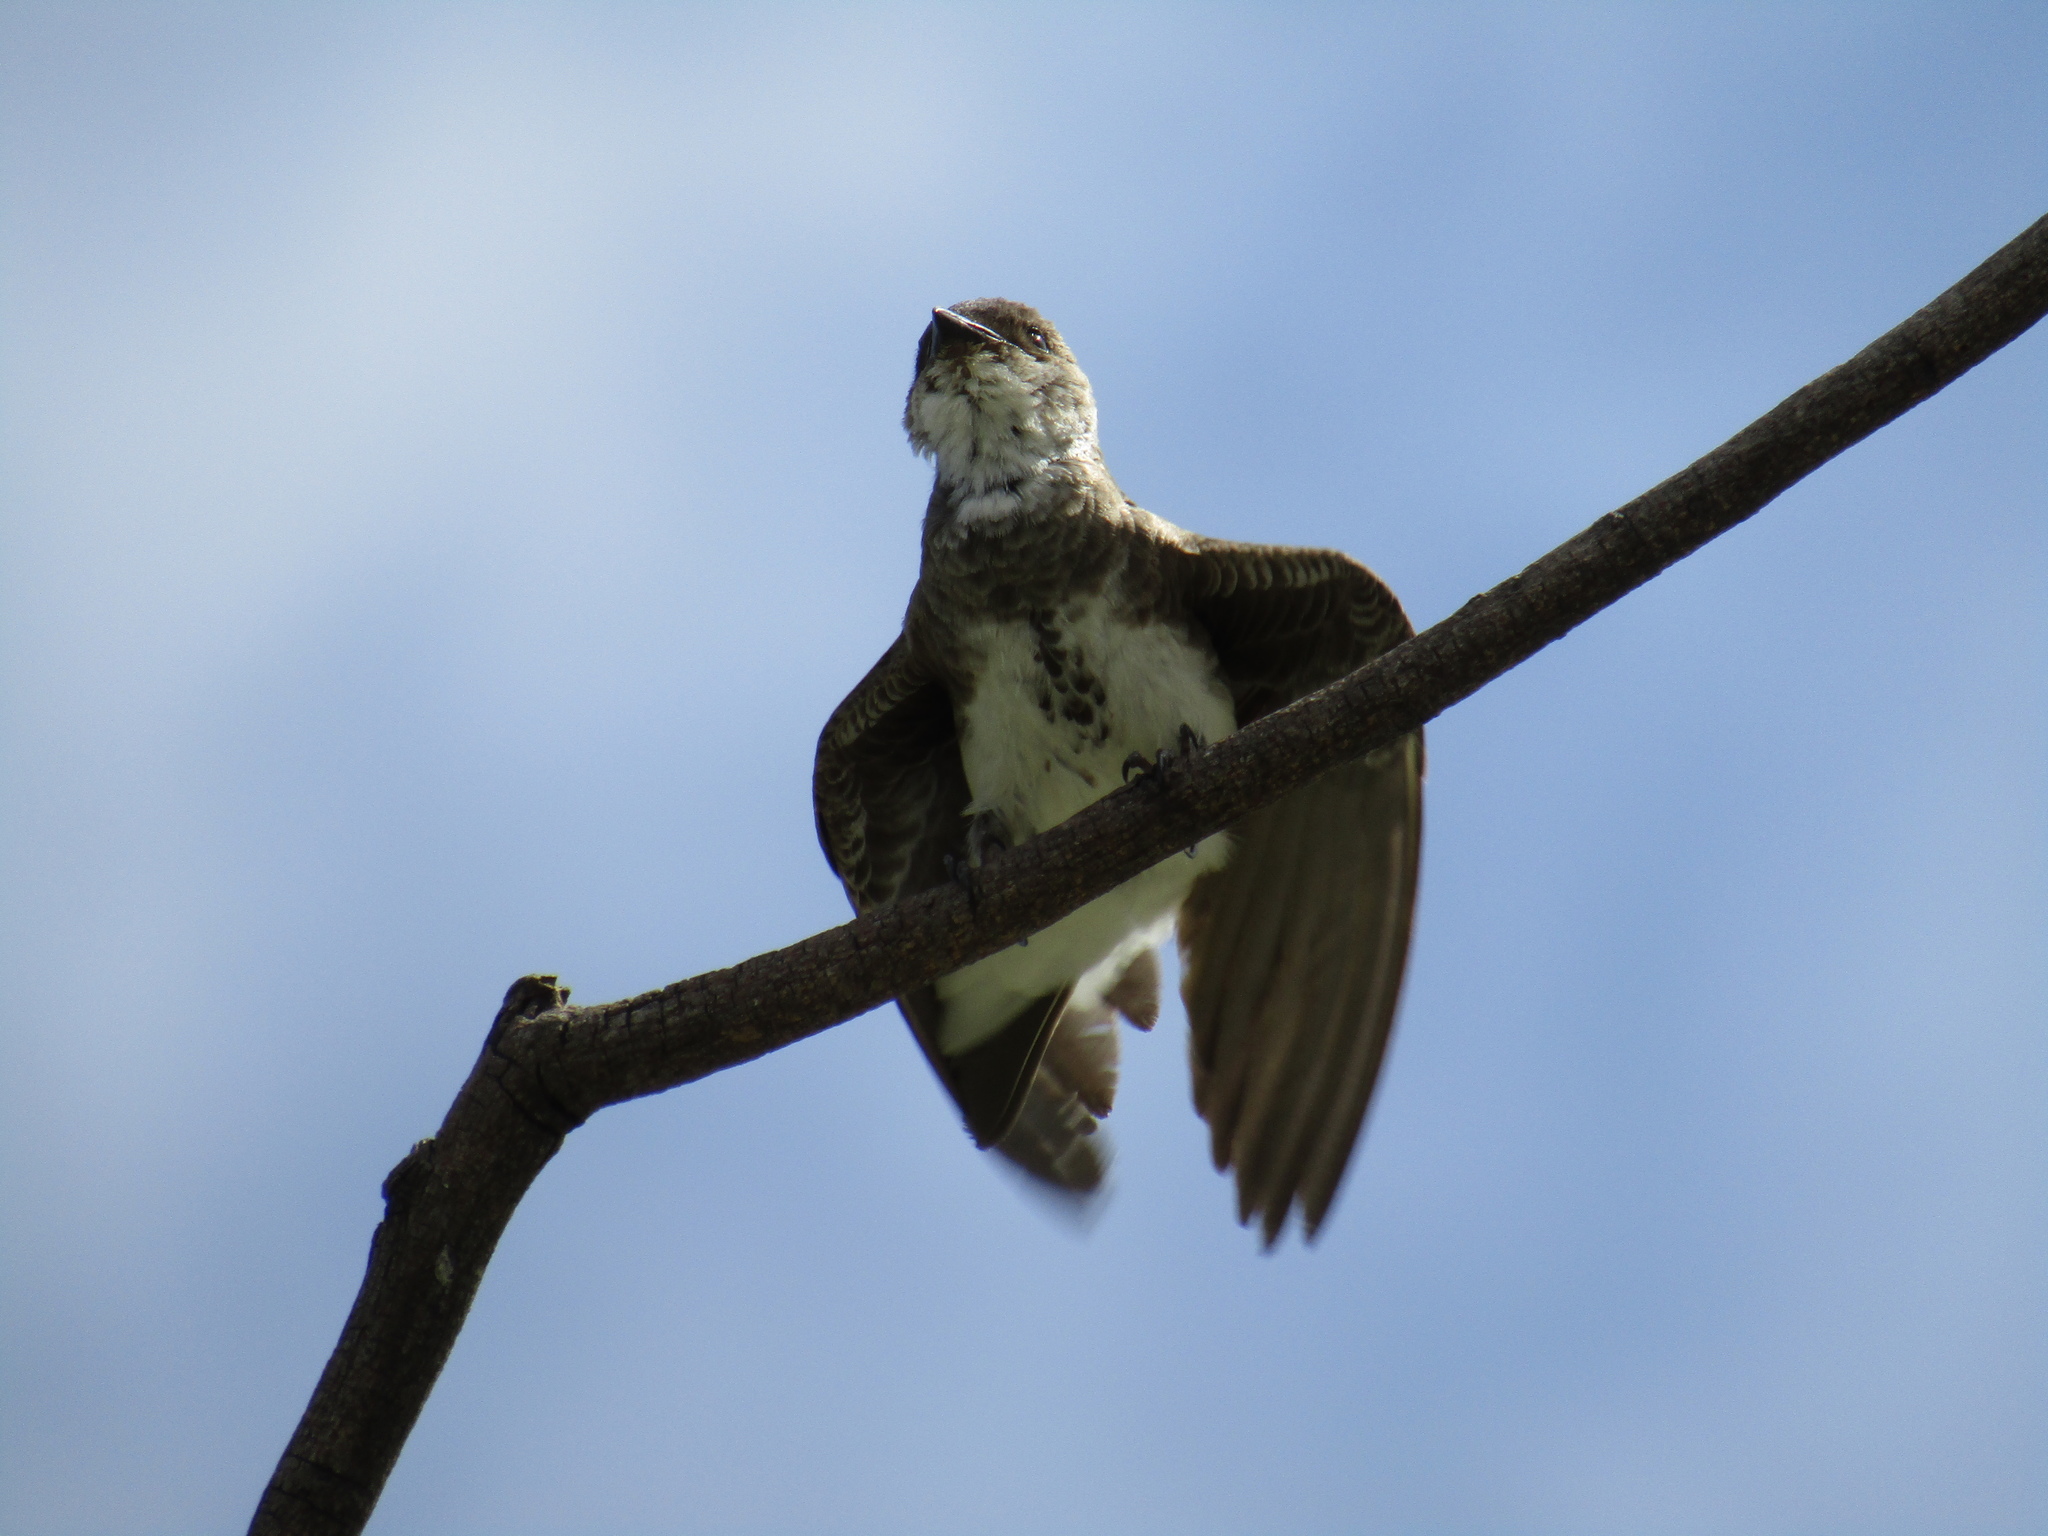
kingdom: Animalia
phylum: Chordata
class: Aves
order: Passeriformes
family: Hirundinidae
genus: Progne
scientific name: Progne tapera
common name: Brown-chested martin
